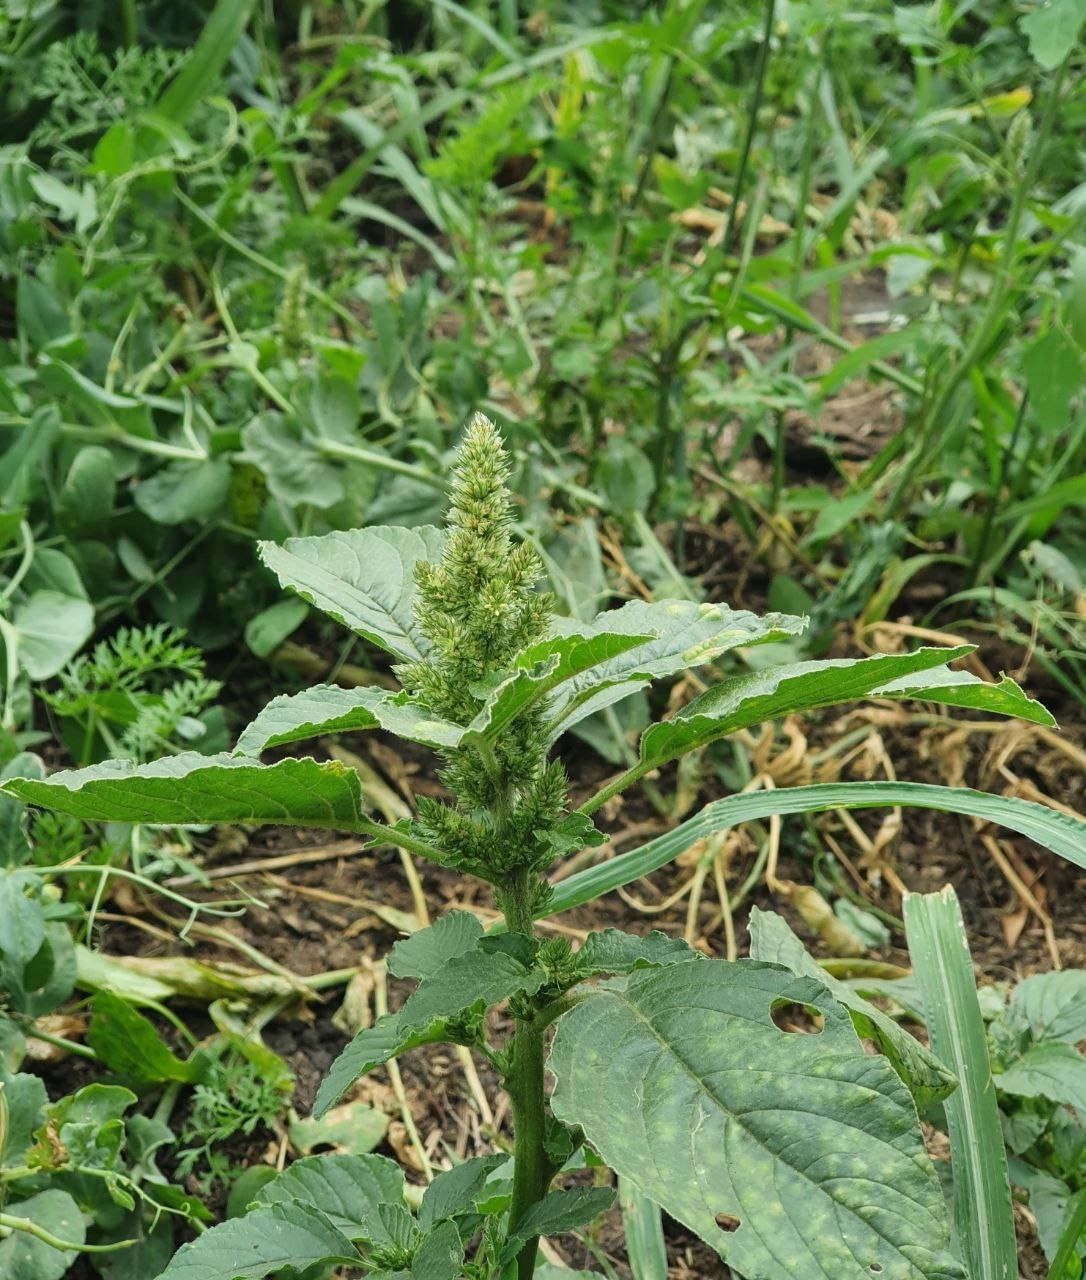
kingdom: Plantae
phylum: Tracheophyta
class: Magnoliopsida
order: Caryophyllales
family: Amaranthaceae
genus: Amaranthus
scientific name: Amaranthus retroflexus
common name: Redroot amaranth
